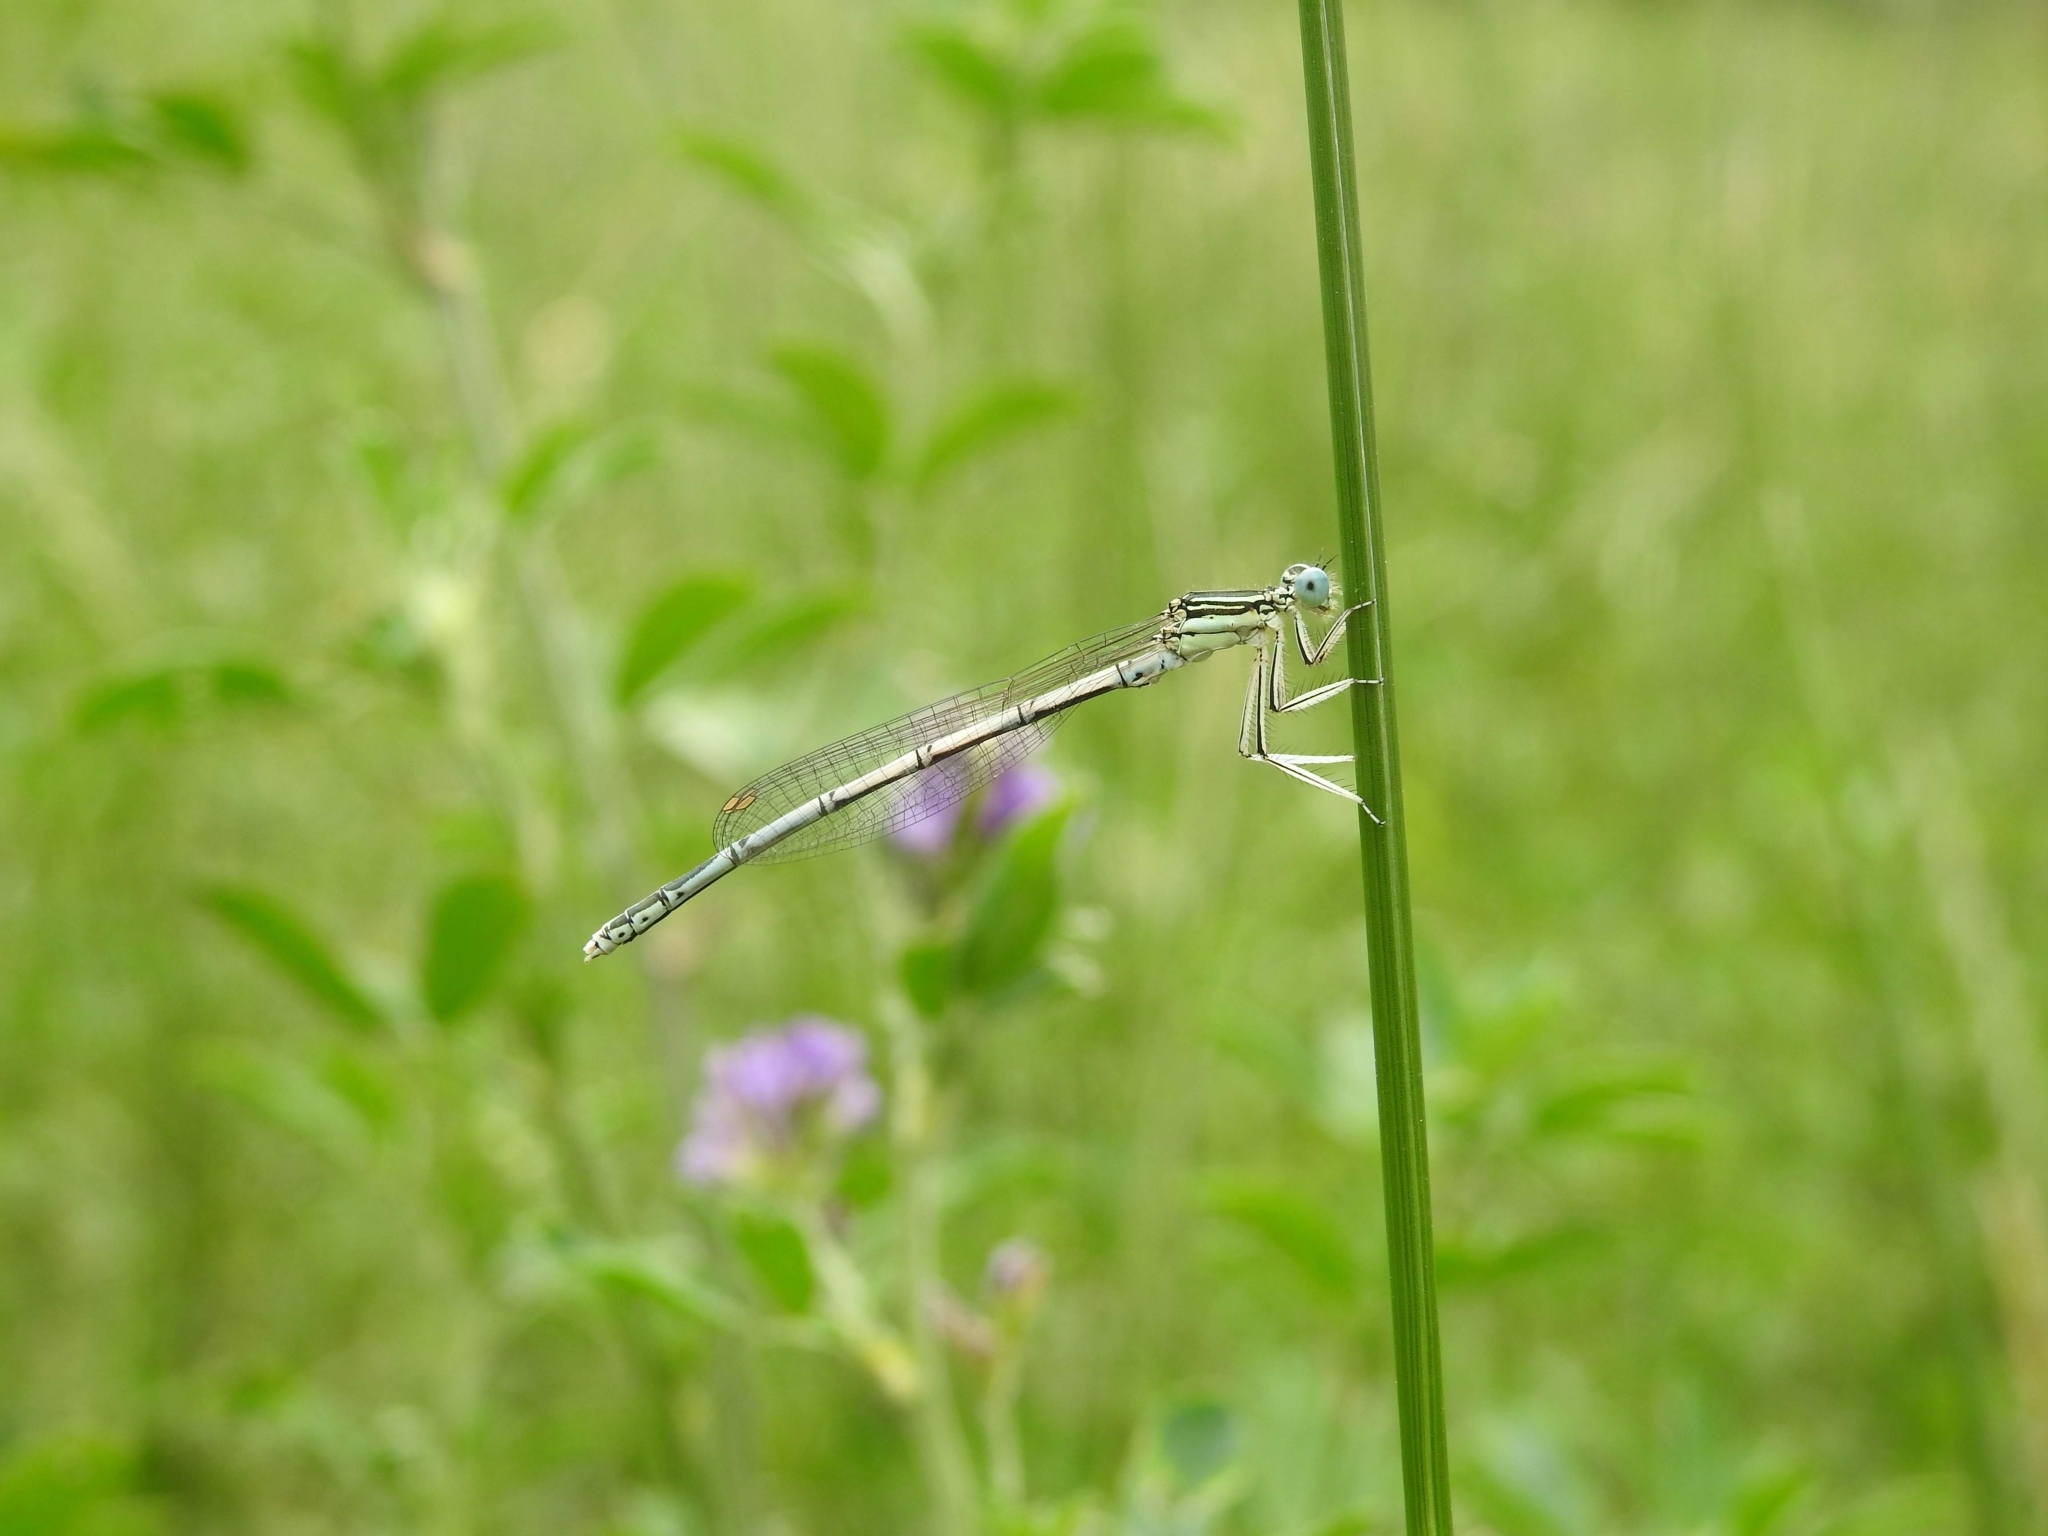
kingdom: Animalia
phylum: Arthropoda
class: Insecta
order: Odonata
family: Platycnemididae
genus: Platycnemis
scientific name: Platycnemis pennipes
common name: White-legged damselfly
